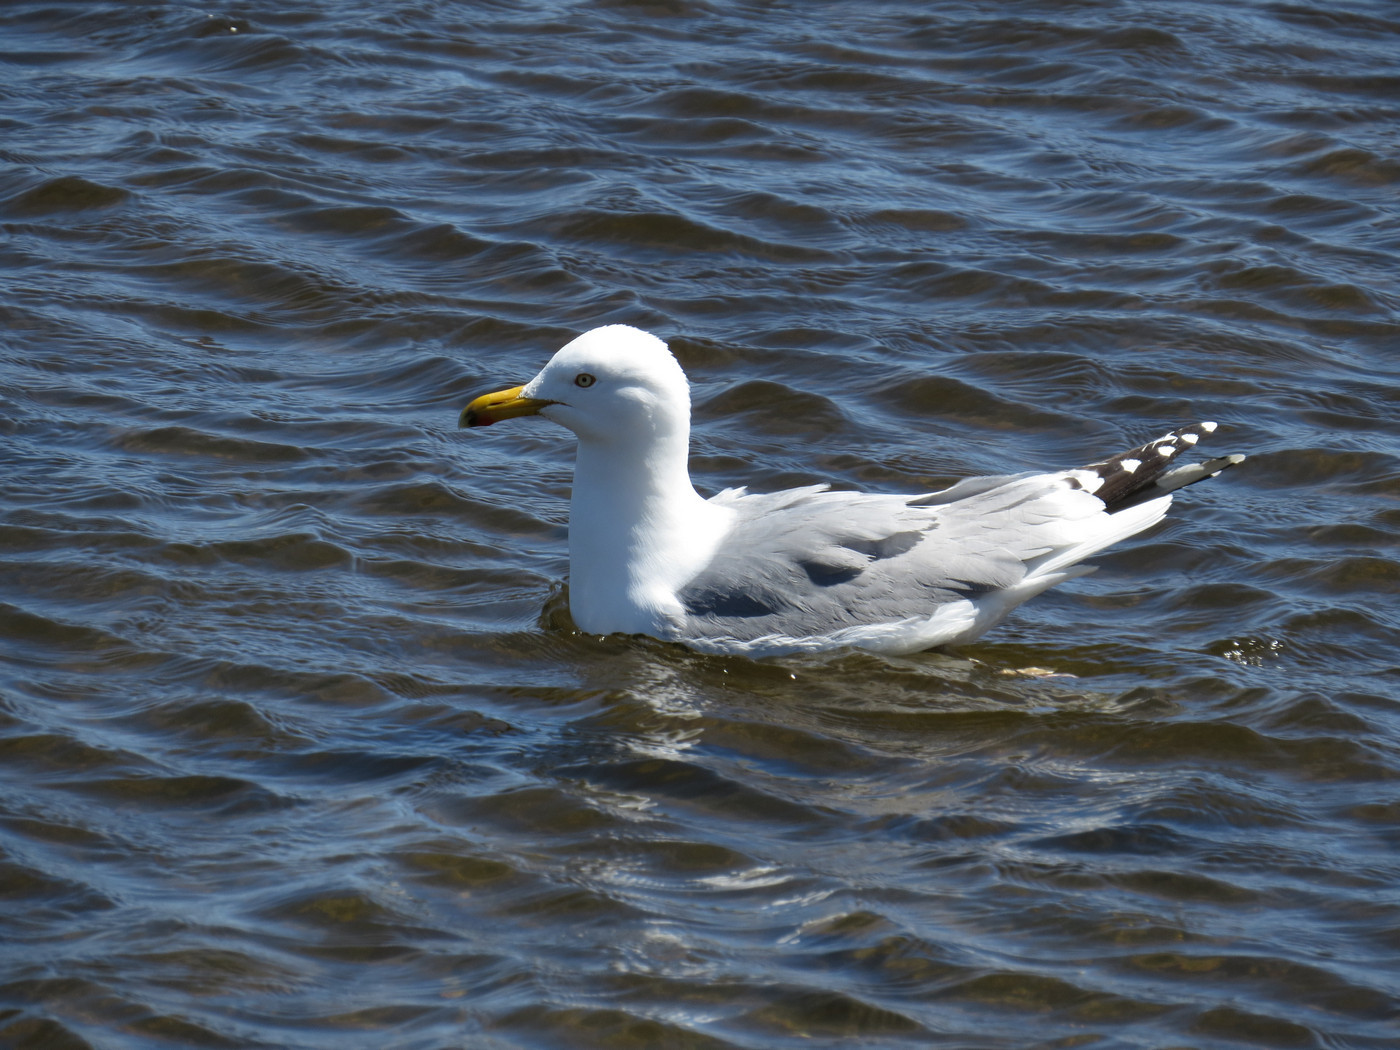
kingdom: Animalia
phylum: Chordata
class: Aves
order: Charadriiformes
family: Laridae
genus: Larus
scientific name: Larus argentatus
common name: Herring gull
